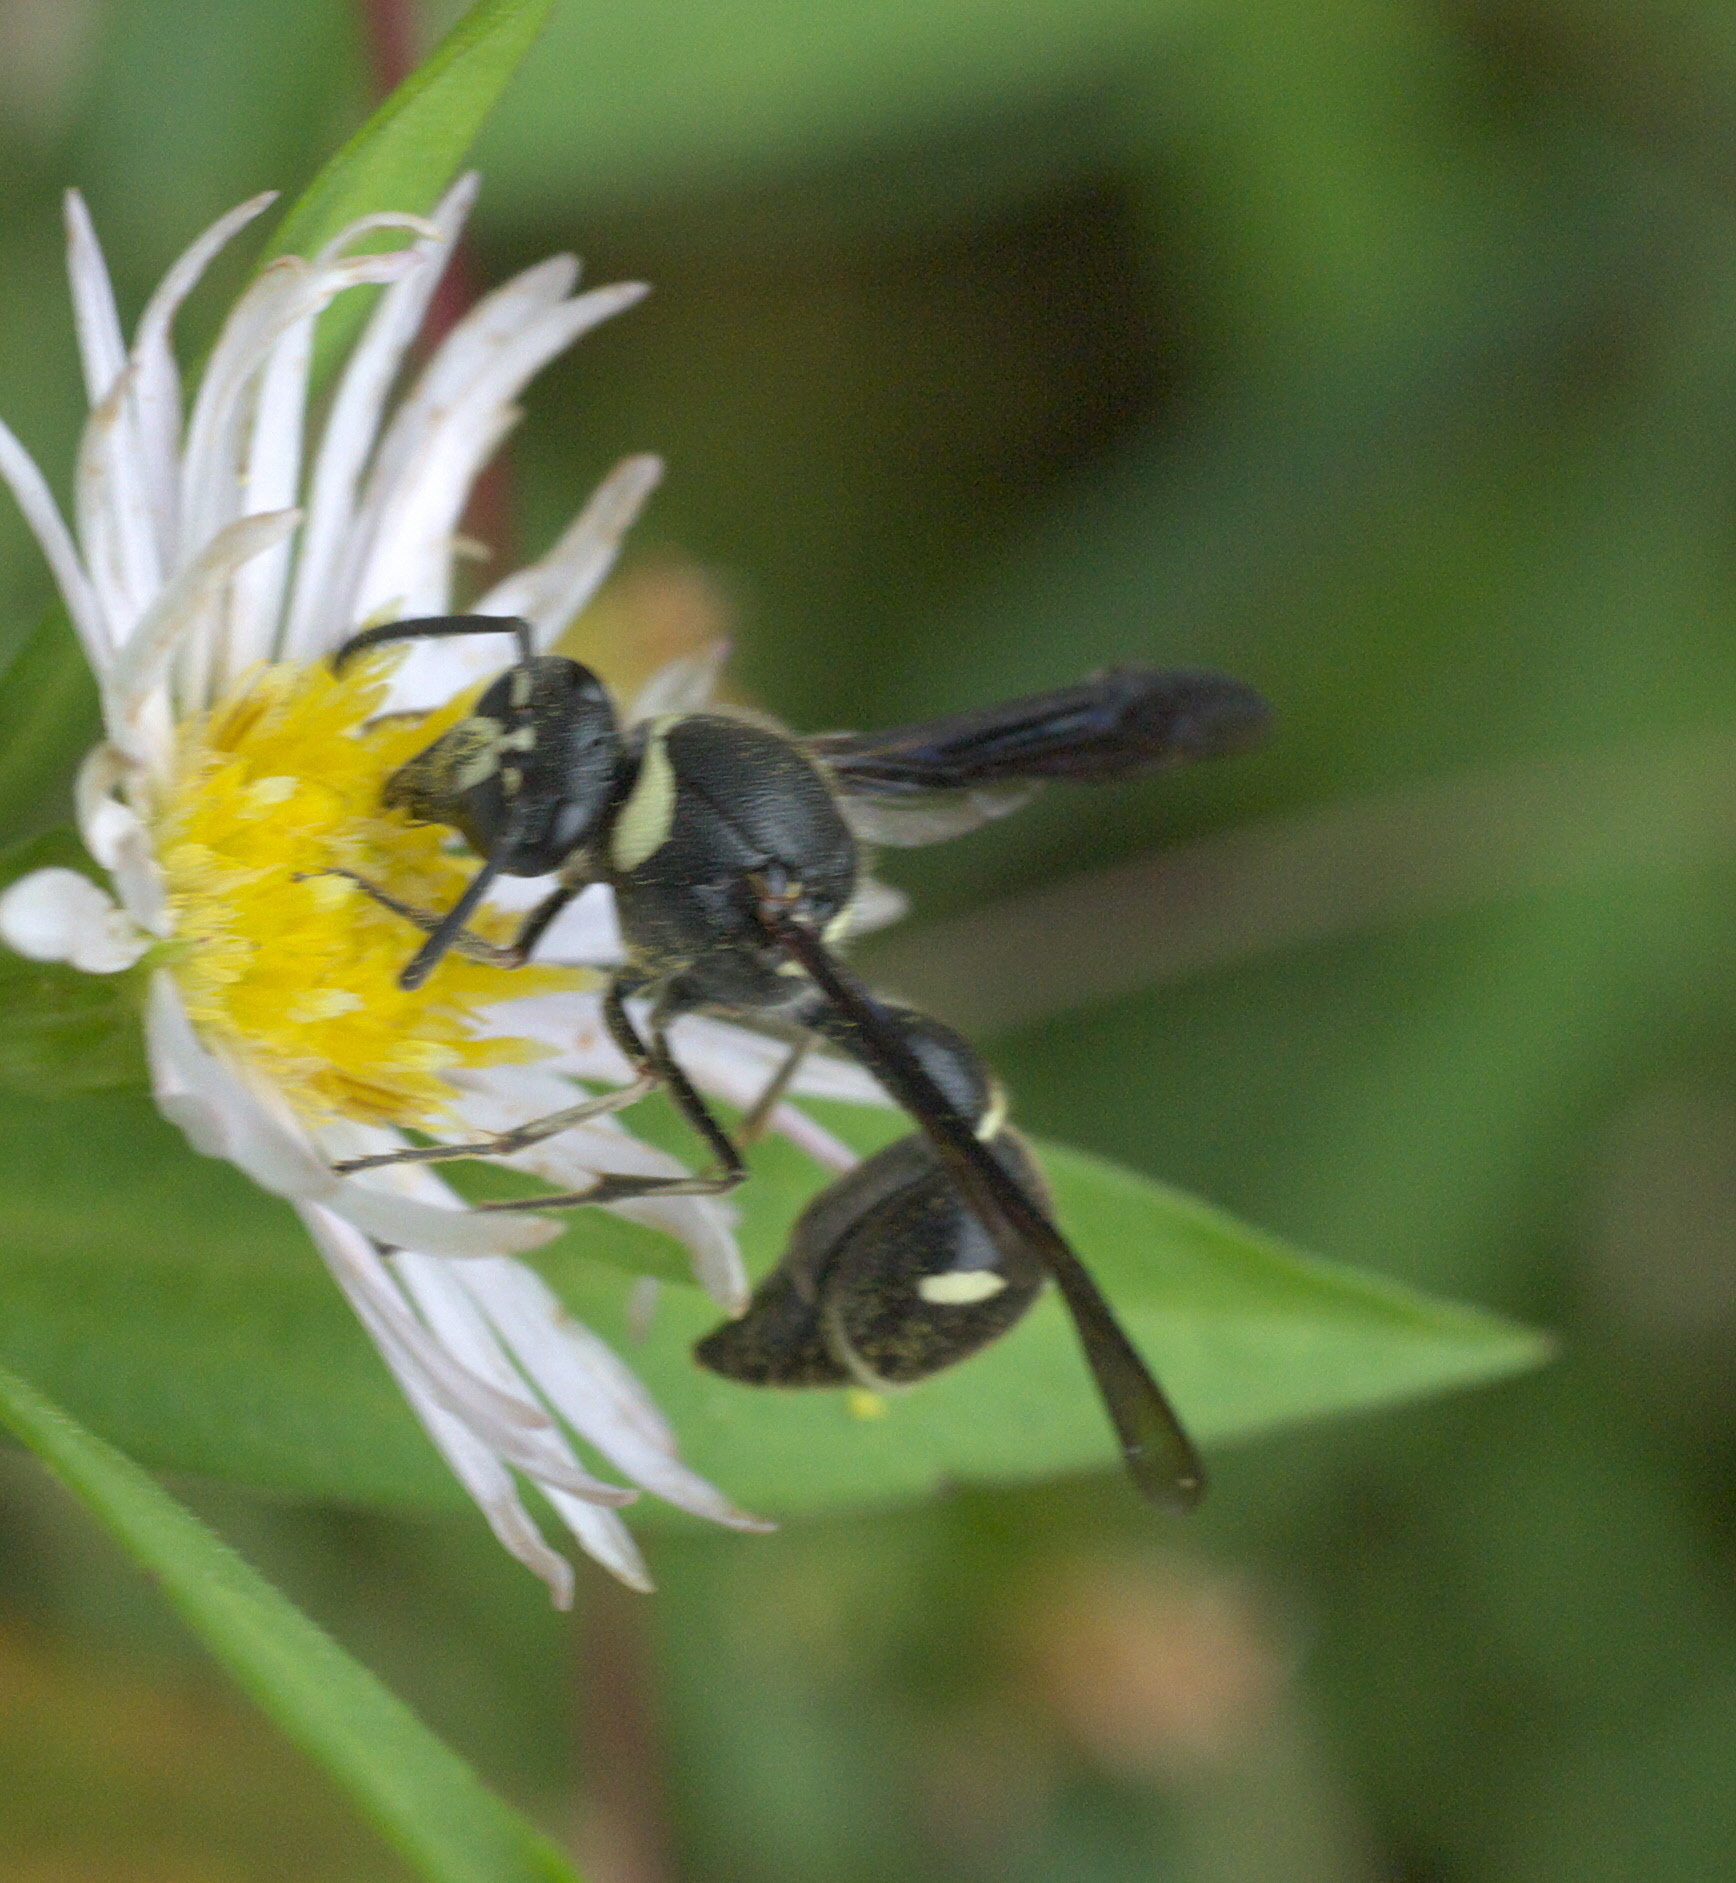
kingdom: Animalia
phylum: Arthropoda
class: Insecta
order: Hymenoptera
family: Vespidae
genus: Eumenes
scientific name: Eumenes fraternus
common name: Fraternal potter wasp
